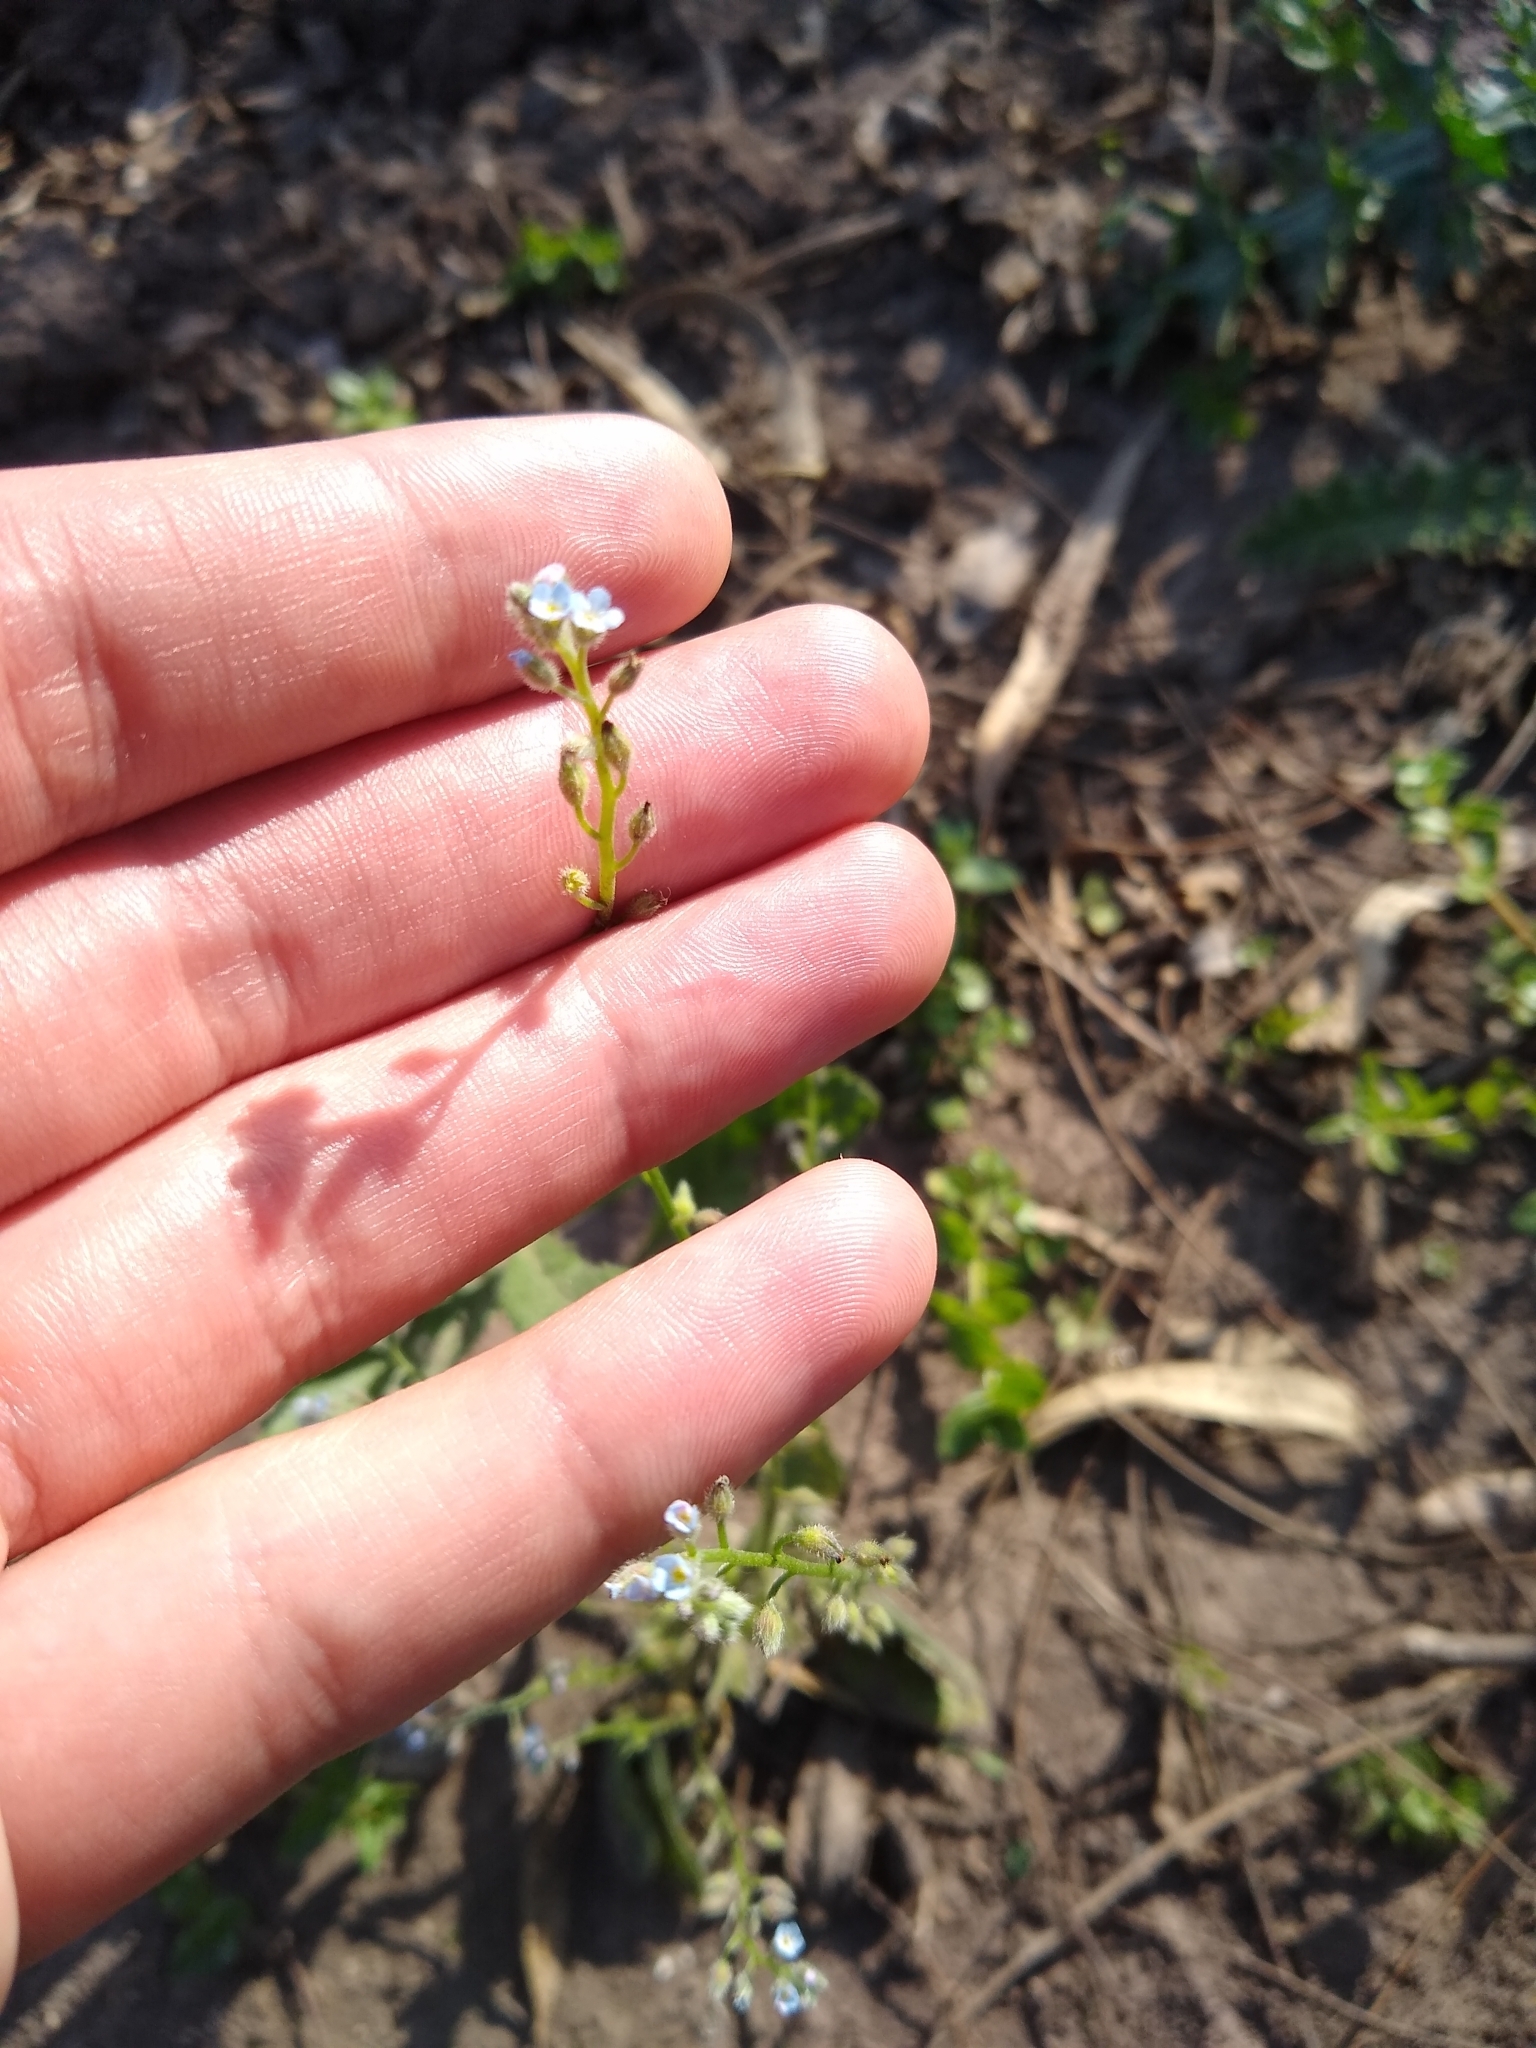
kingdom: Plantae
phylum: Tracheophyta
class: Magnoliopsida
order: Boraginales
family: Boraginaceae
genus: Myosotis
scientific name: Myosotis arvensis
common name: Field forget-me-not
